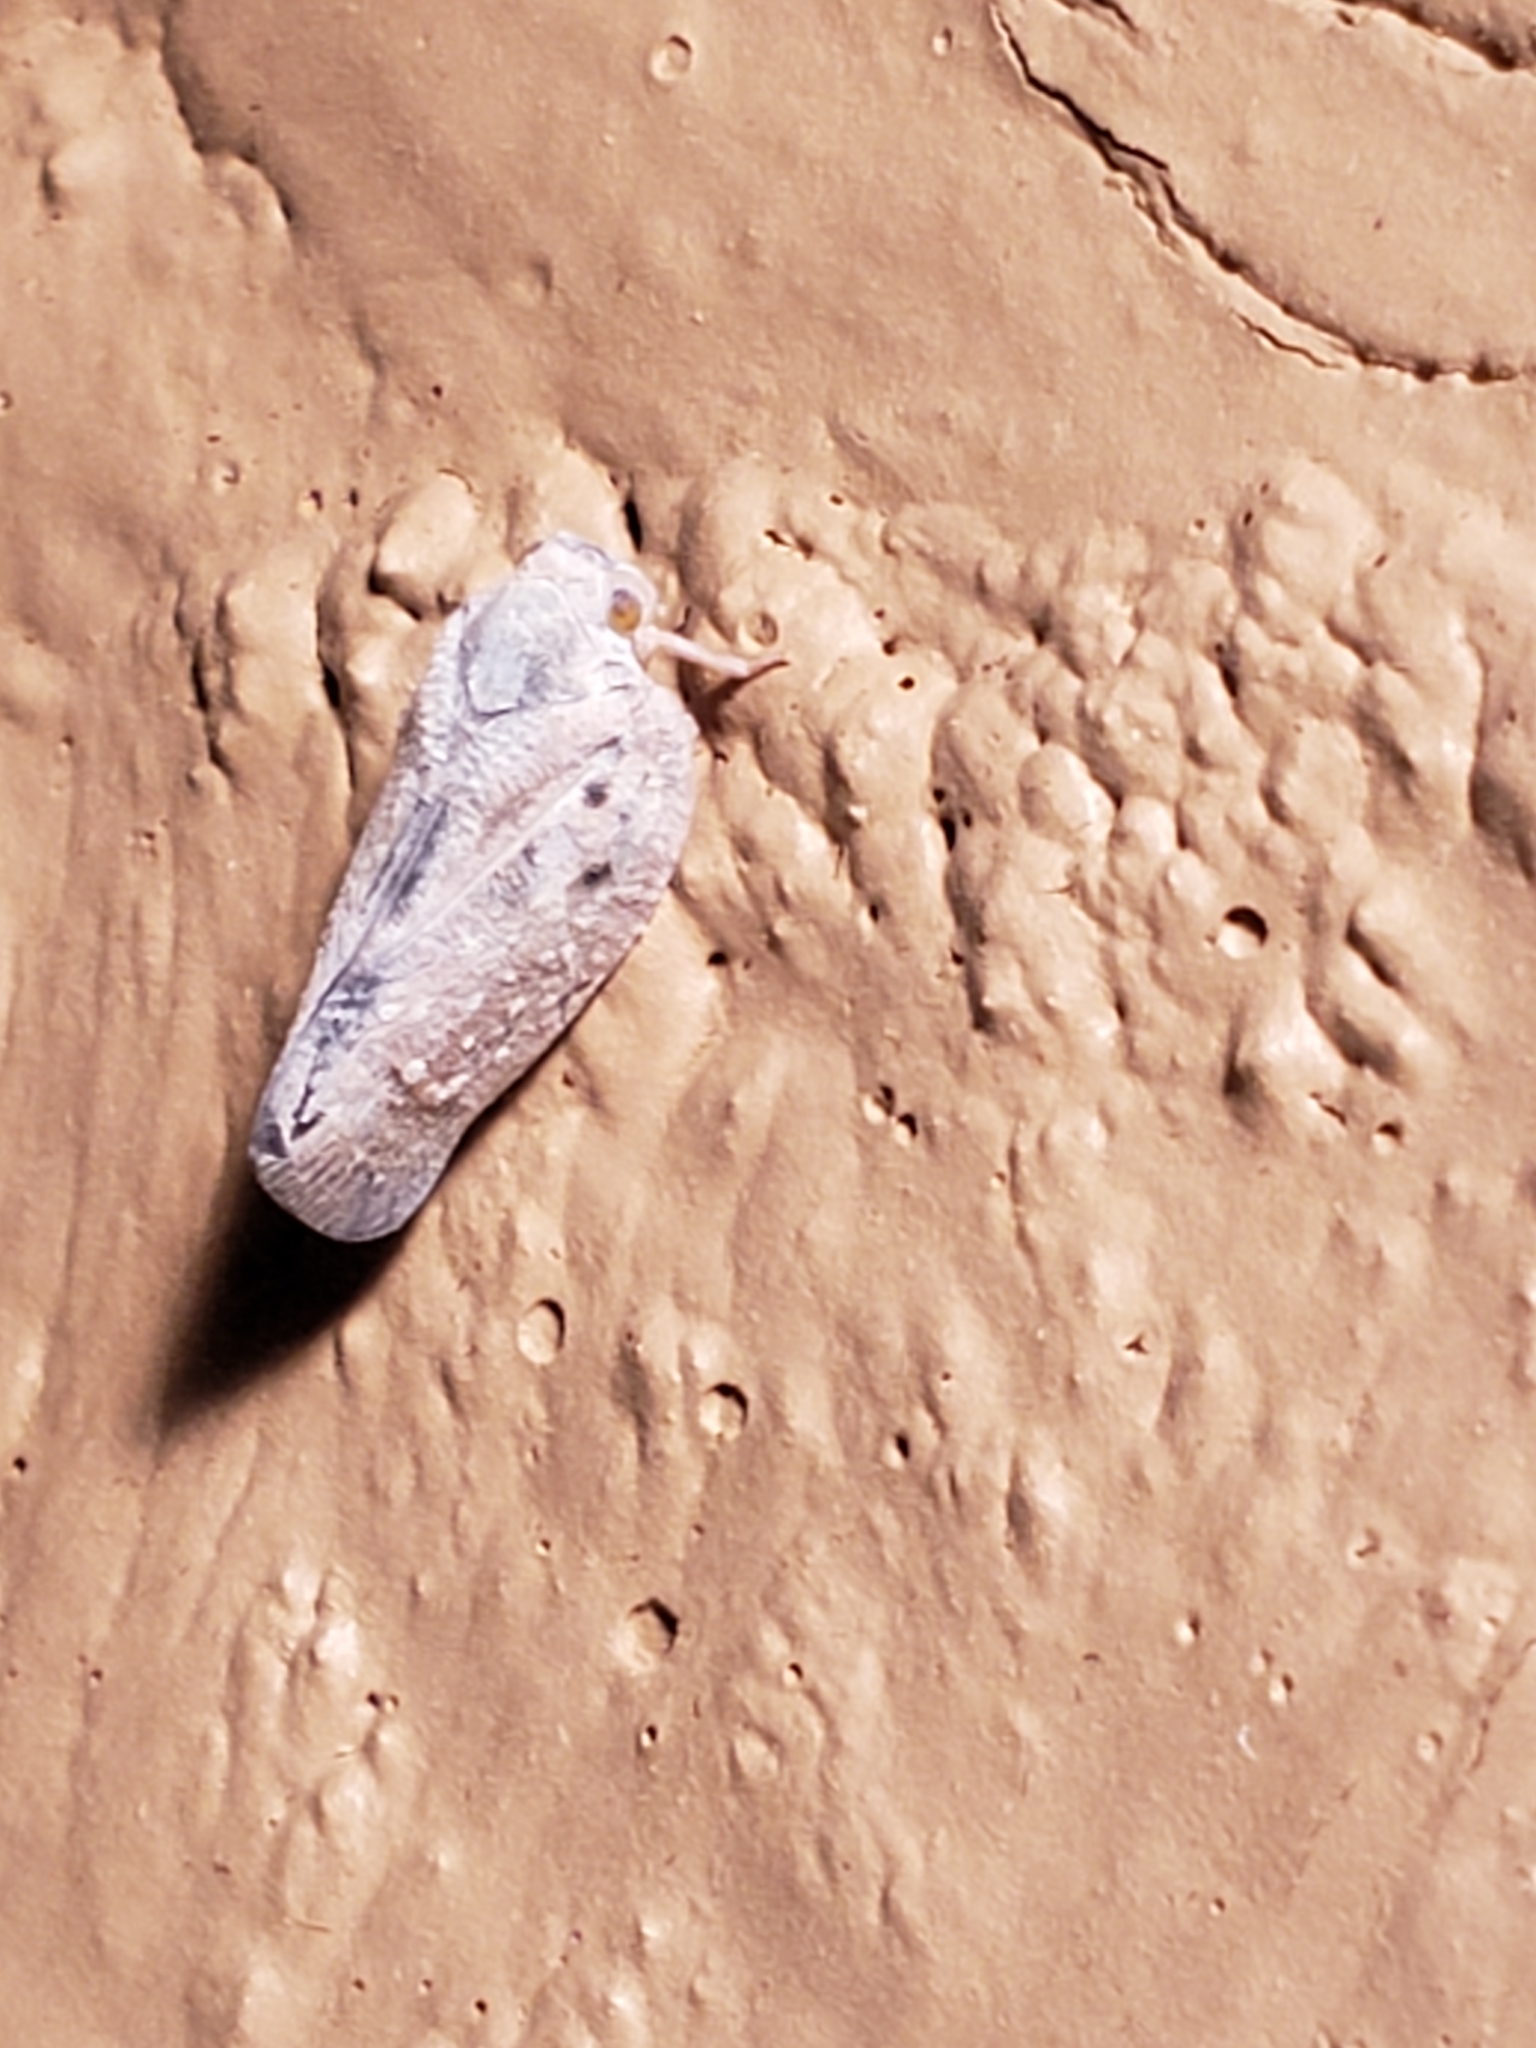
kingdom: Animalia
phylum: Arthropoda
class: Insecta
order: Hemiptera
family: Flatidae
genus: Metcalfa
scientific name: Metcalfa pruinosa
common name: Citrus flatid planthopper
